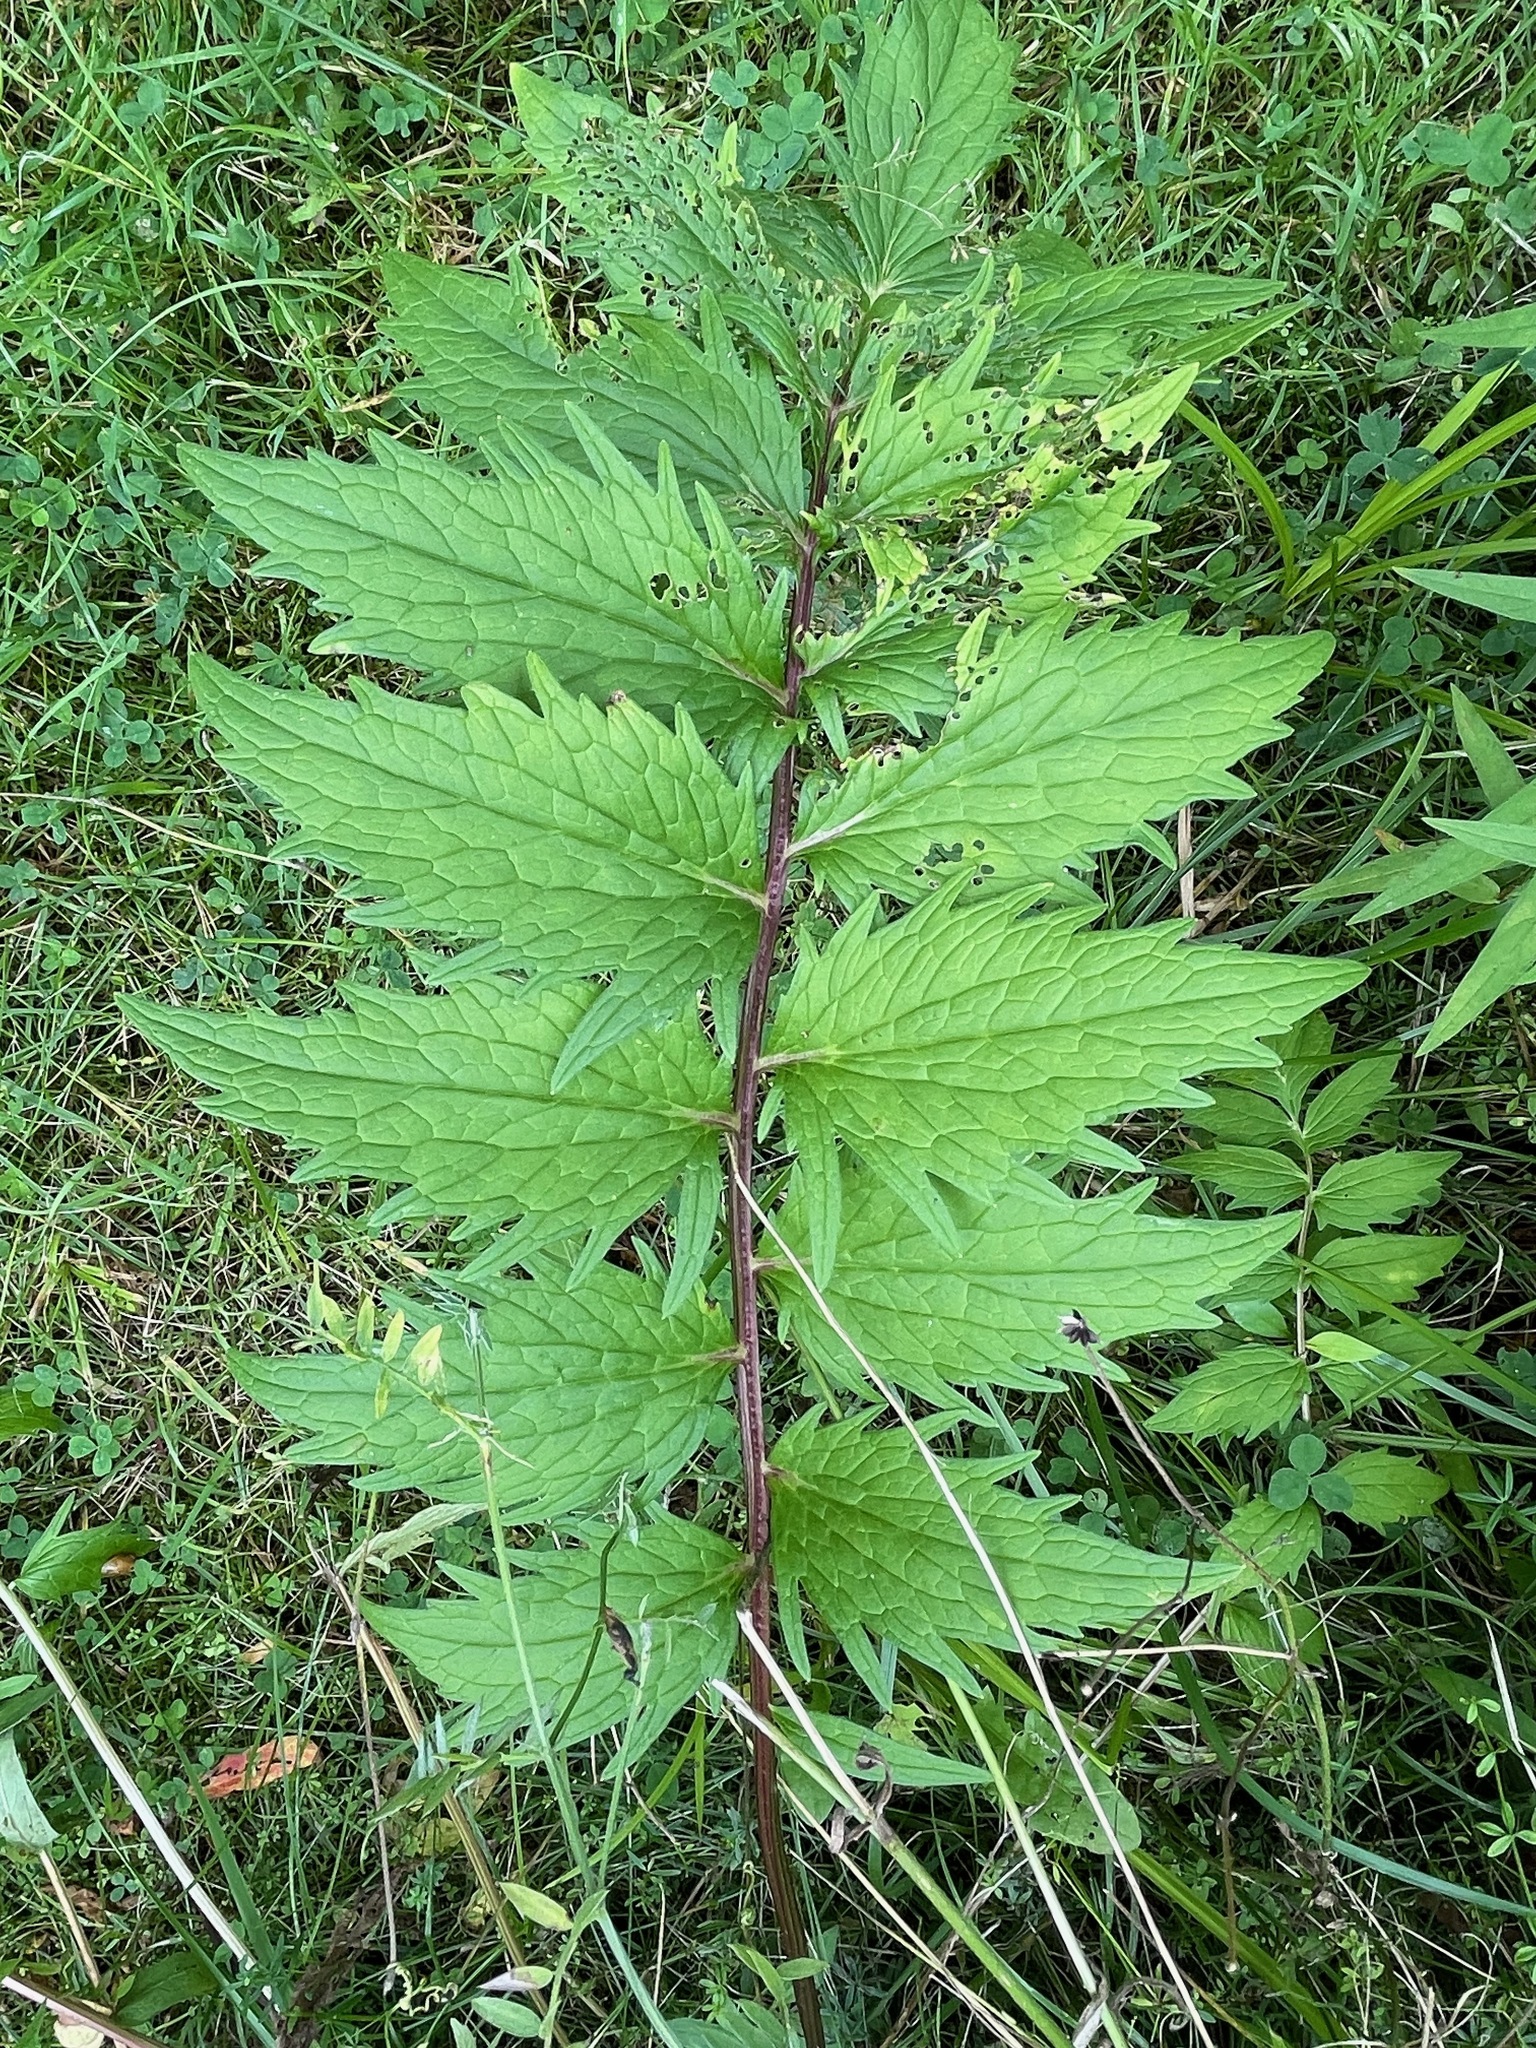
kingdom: Plantae
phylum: Tracheophyta
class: Magnoliopsida
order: Dipsacales
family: Caprifoliaceae
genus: Valeriana
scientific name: Valeriana officinalis
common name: Common valerian
